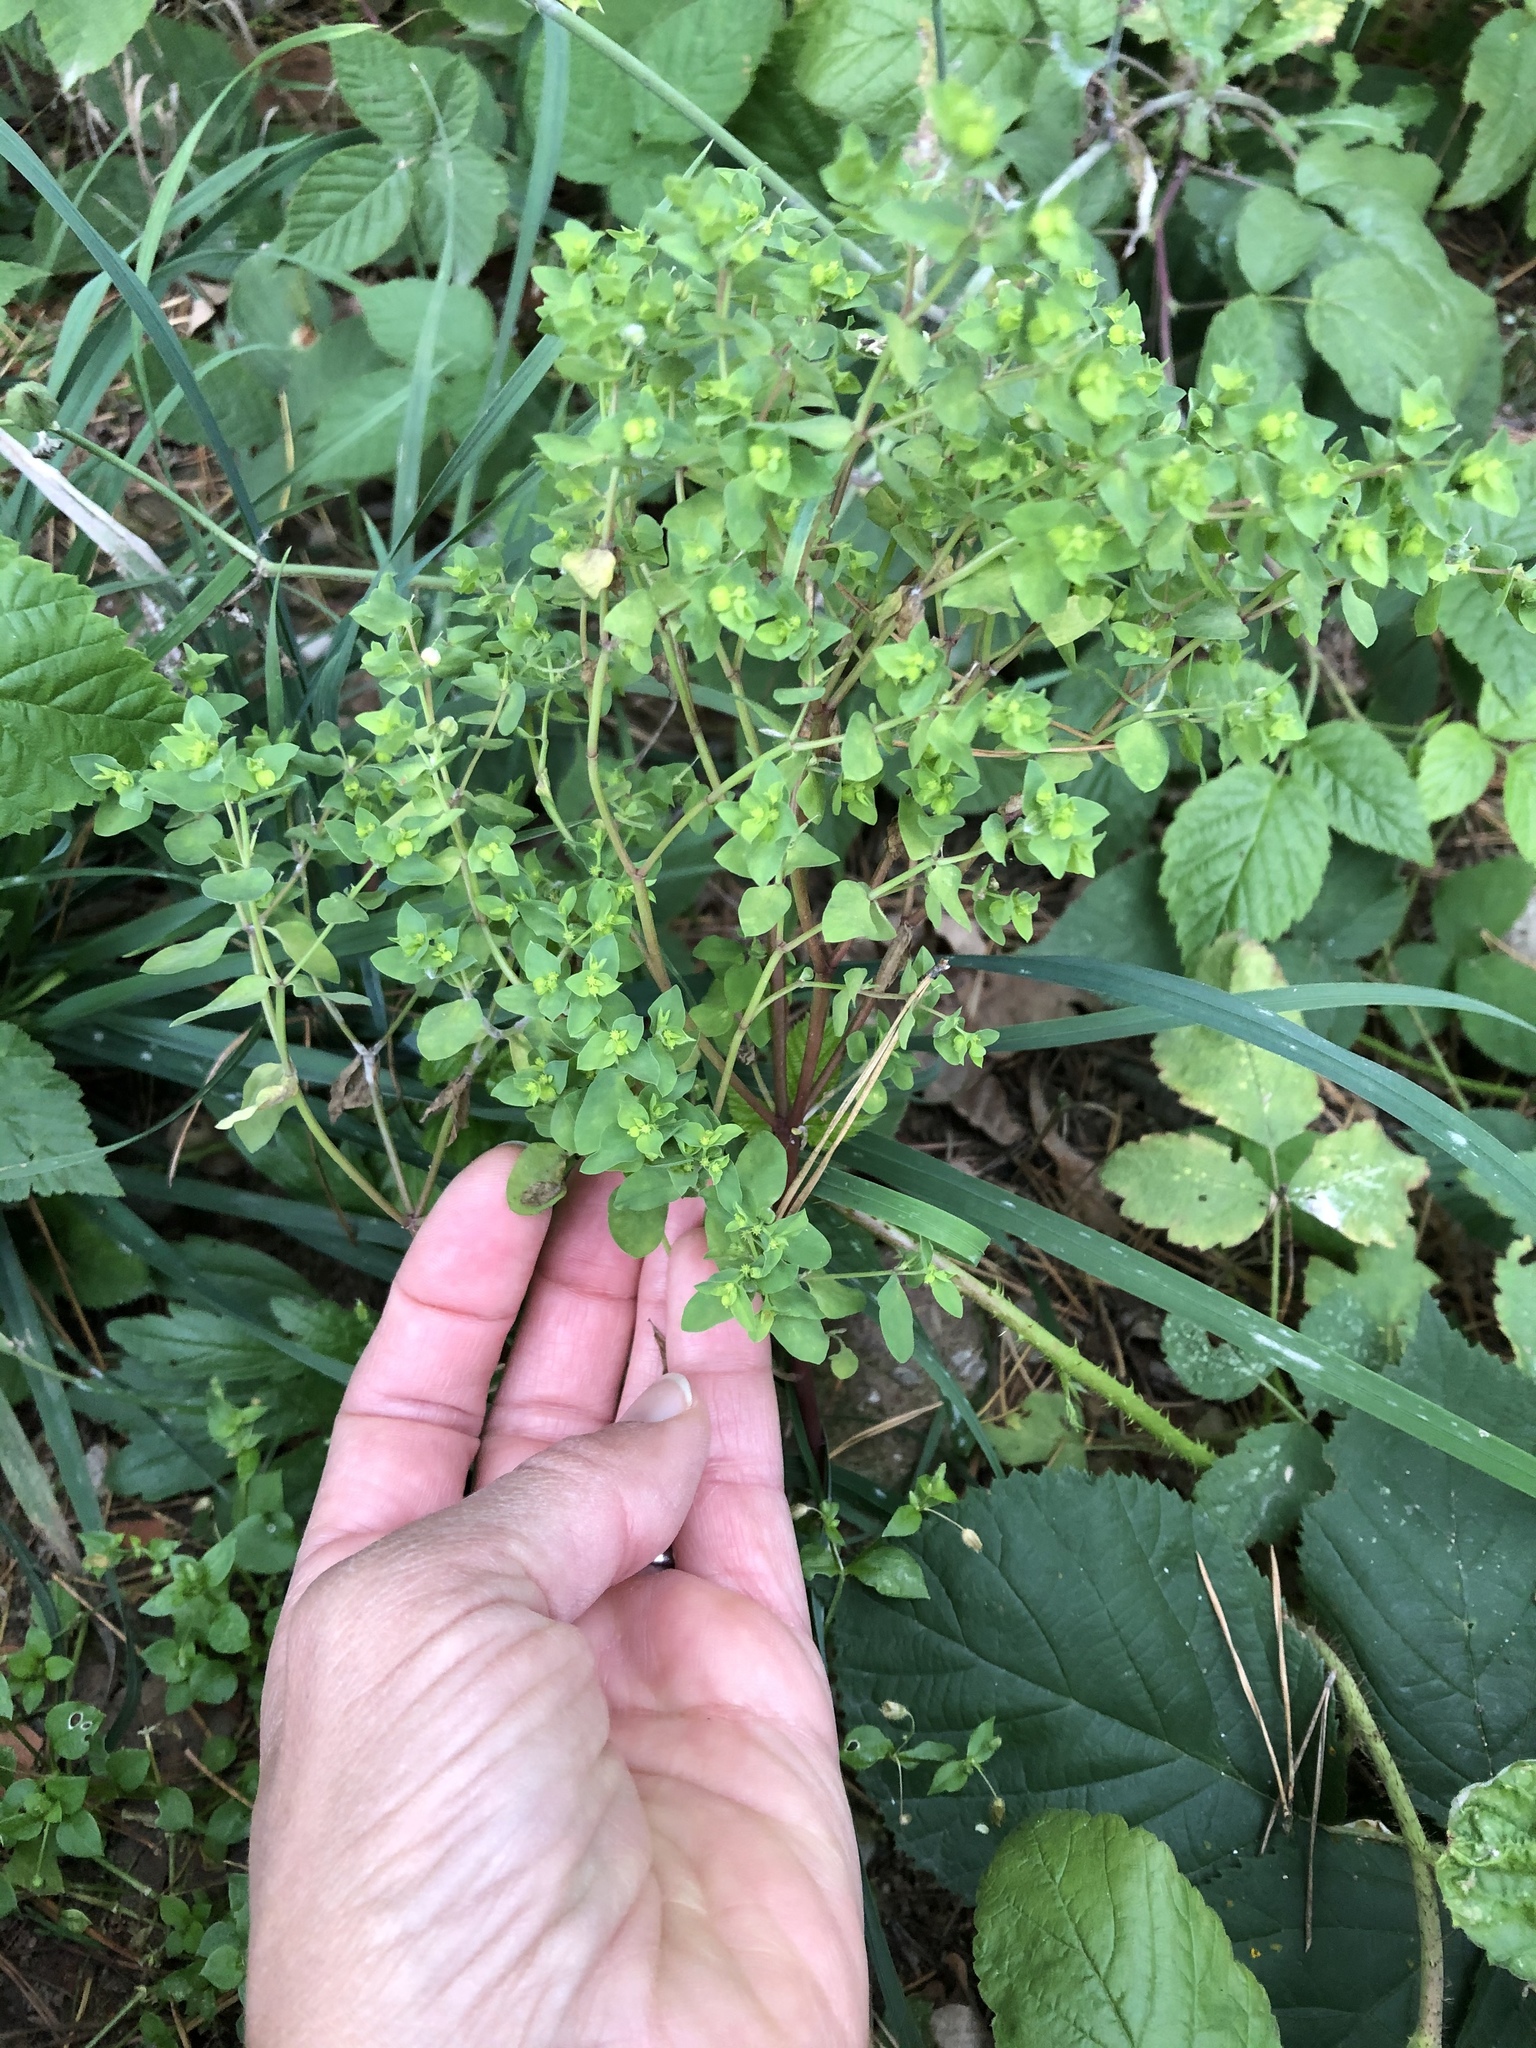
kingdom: Plantae
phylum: Tracheophyta
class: Magnoliopsida
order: Malpighiales
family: Euphorbiaceae
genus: Euphorbia
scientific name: Euphorbia peplus
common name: Petty spurge
